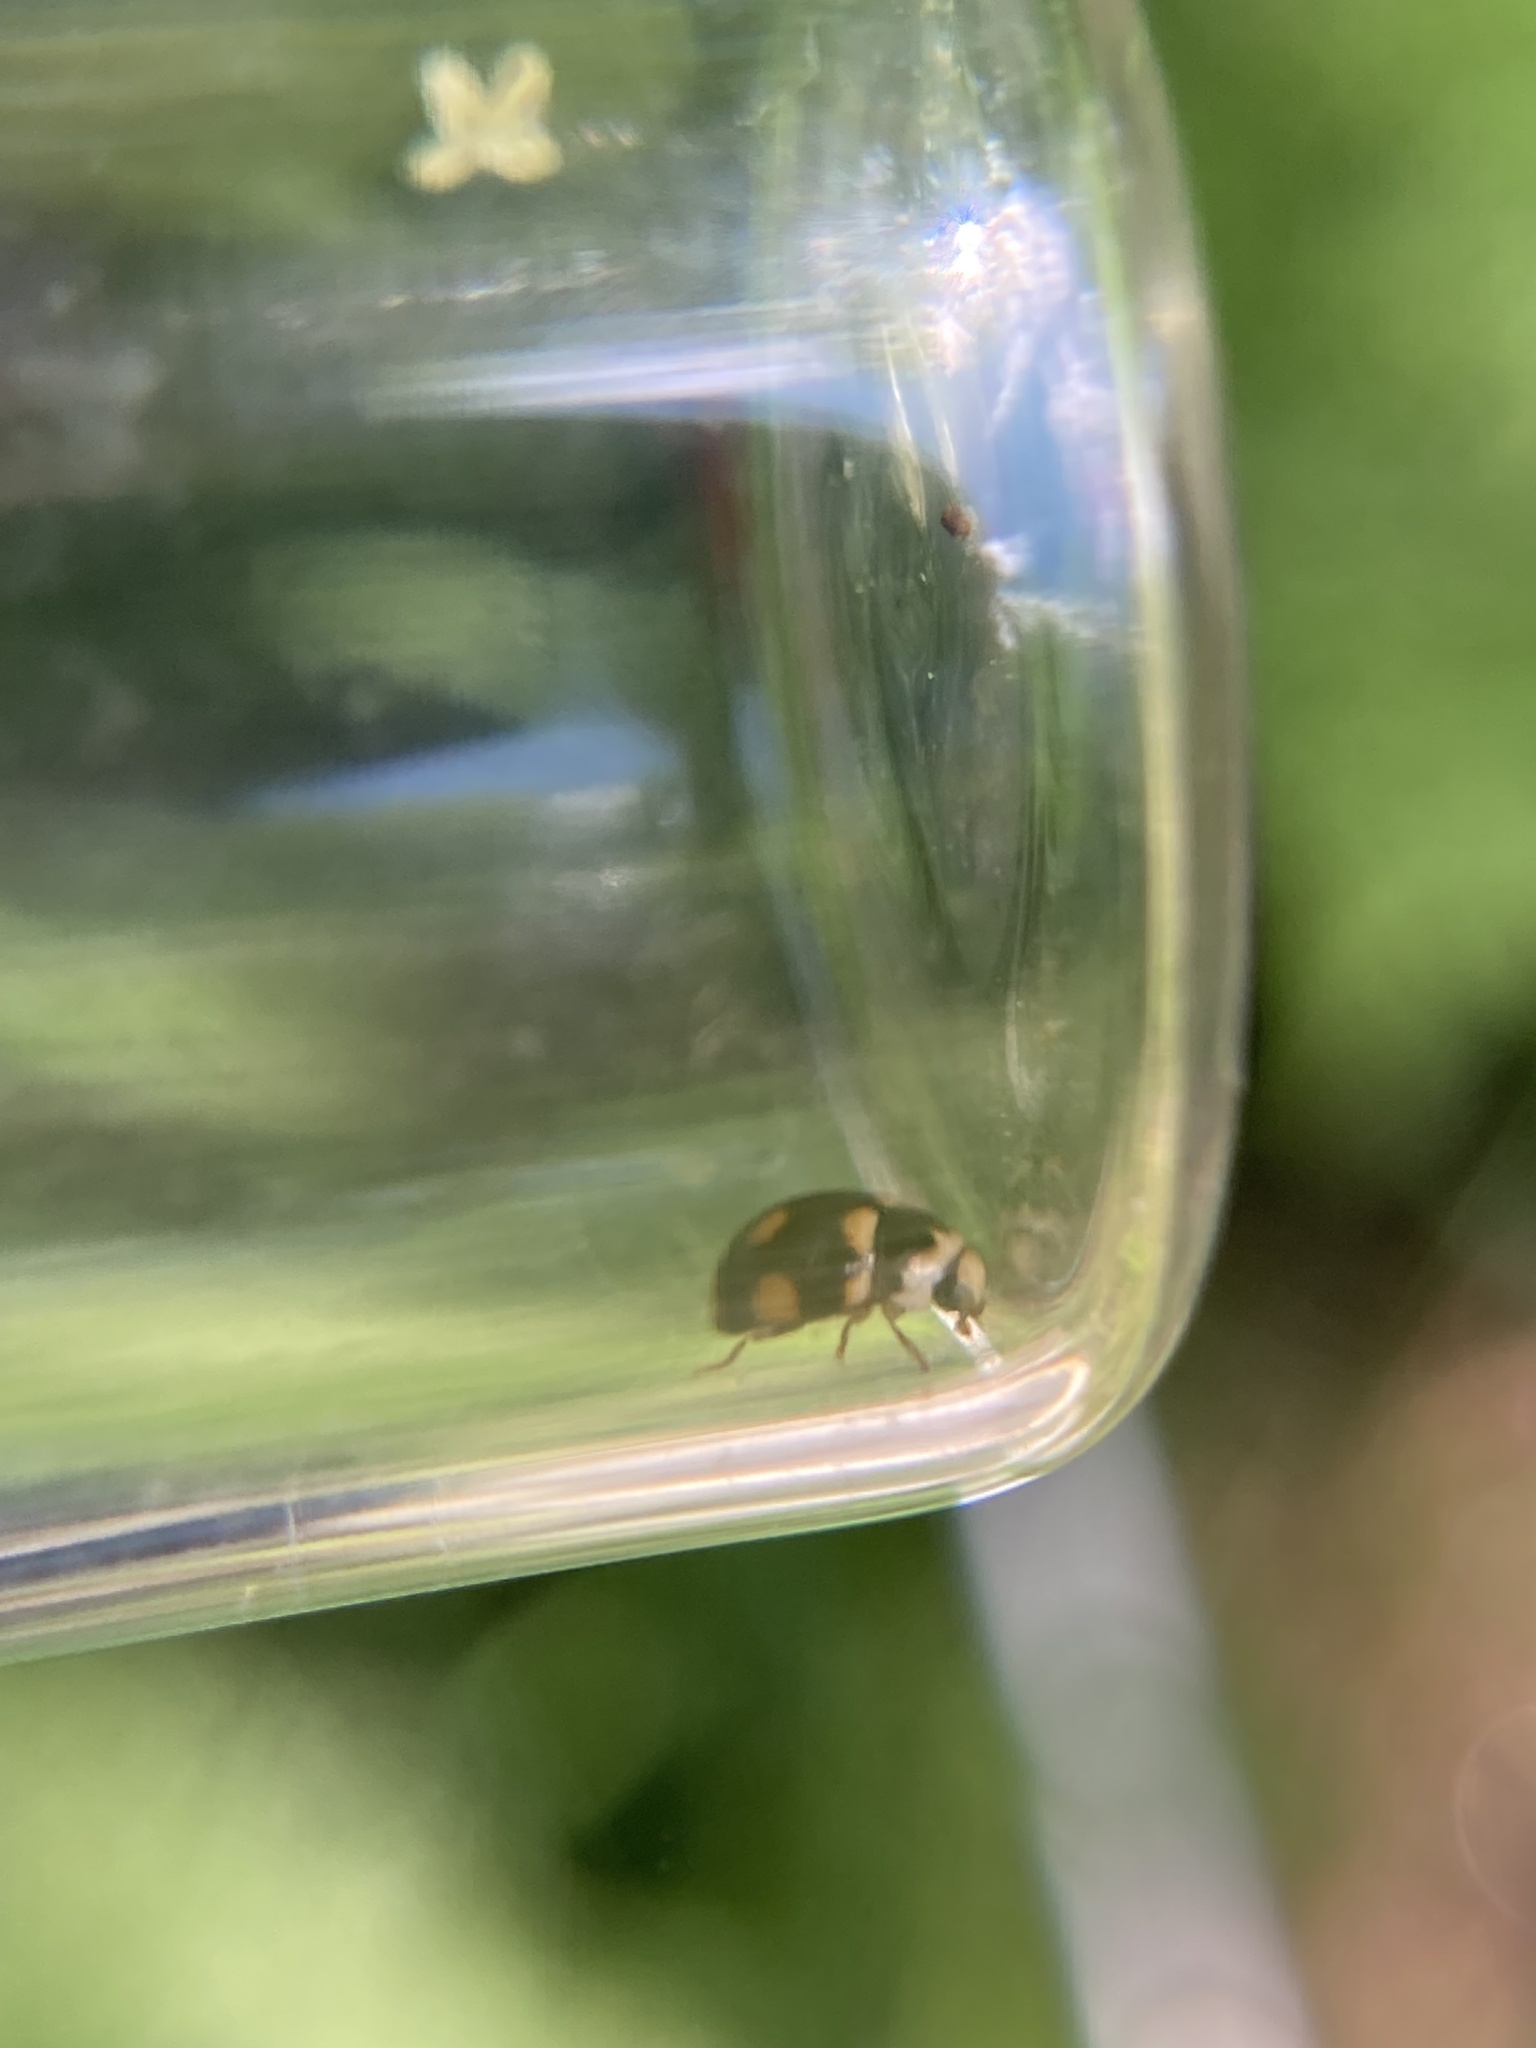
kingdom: Animalia
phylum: Arthropoda
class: Insecta
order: Coleoptera
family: Coccinellidae
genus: Brachiacantha
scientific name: Brachiacantha ursina
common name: Ursine spurleg lady beetle
